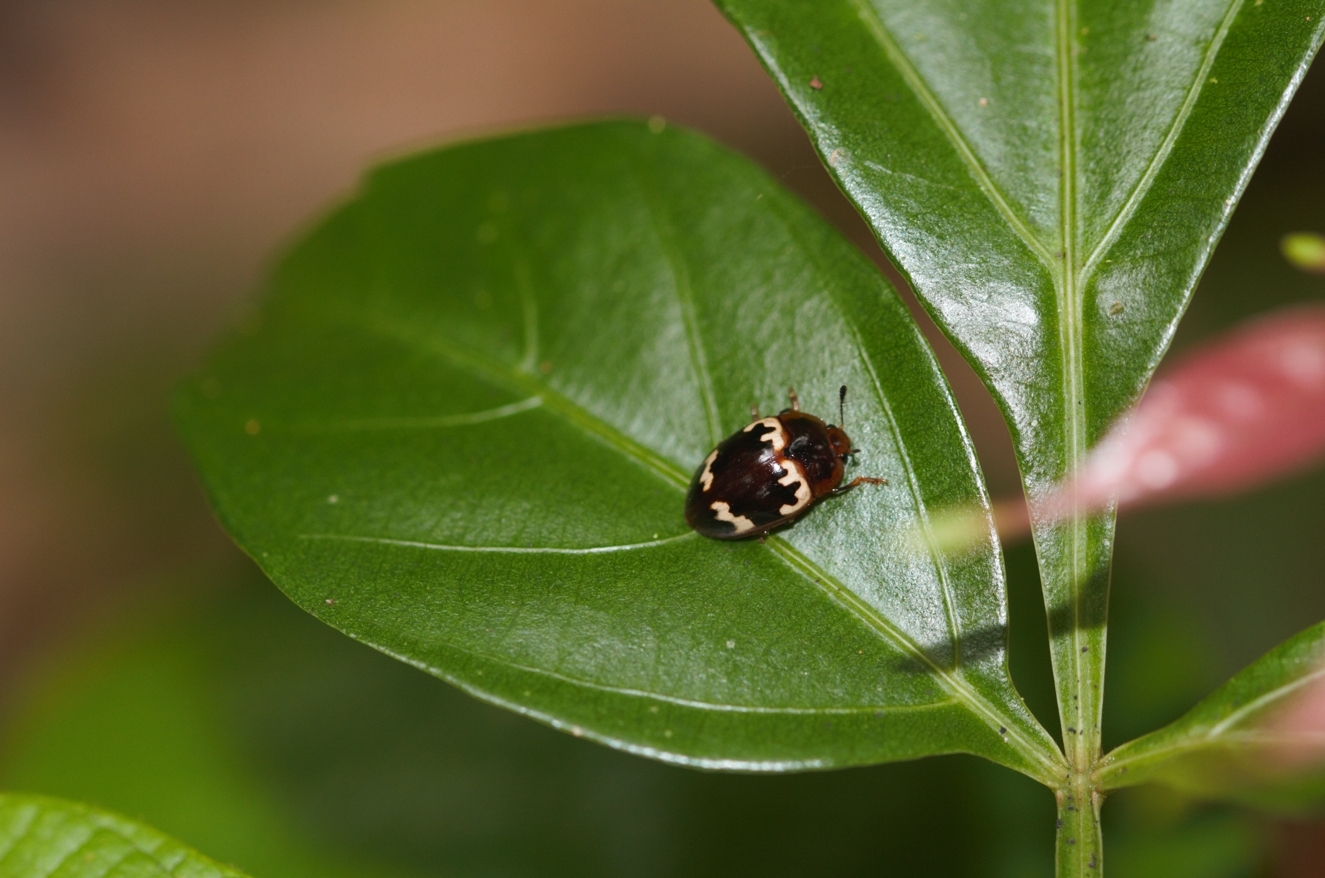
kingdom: Animalia
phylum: Arthropoda
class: Insecta
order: Coleoptera
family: Erotylidae
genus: Iphiclus
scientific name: Iphiclus nitidulus
